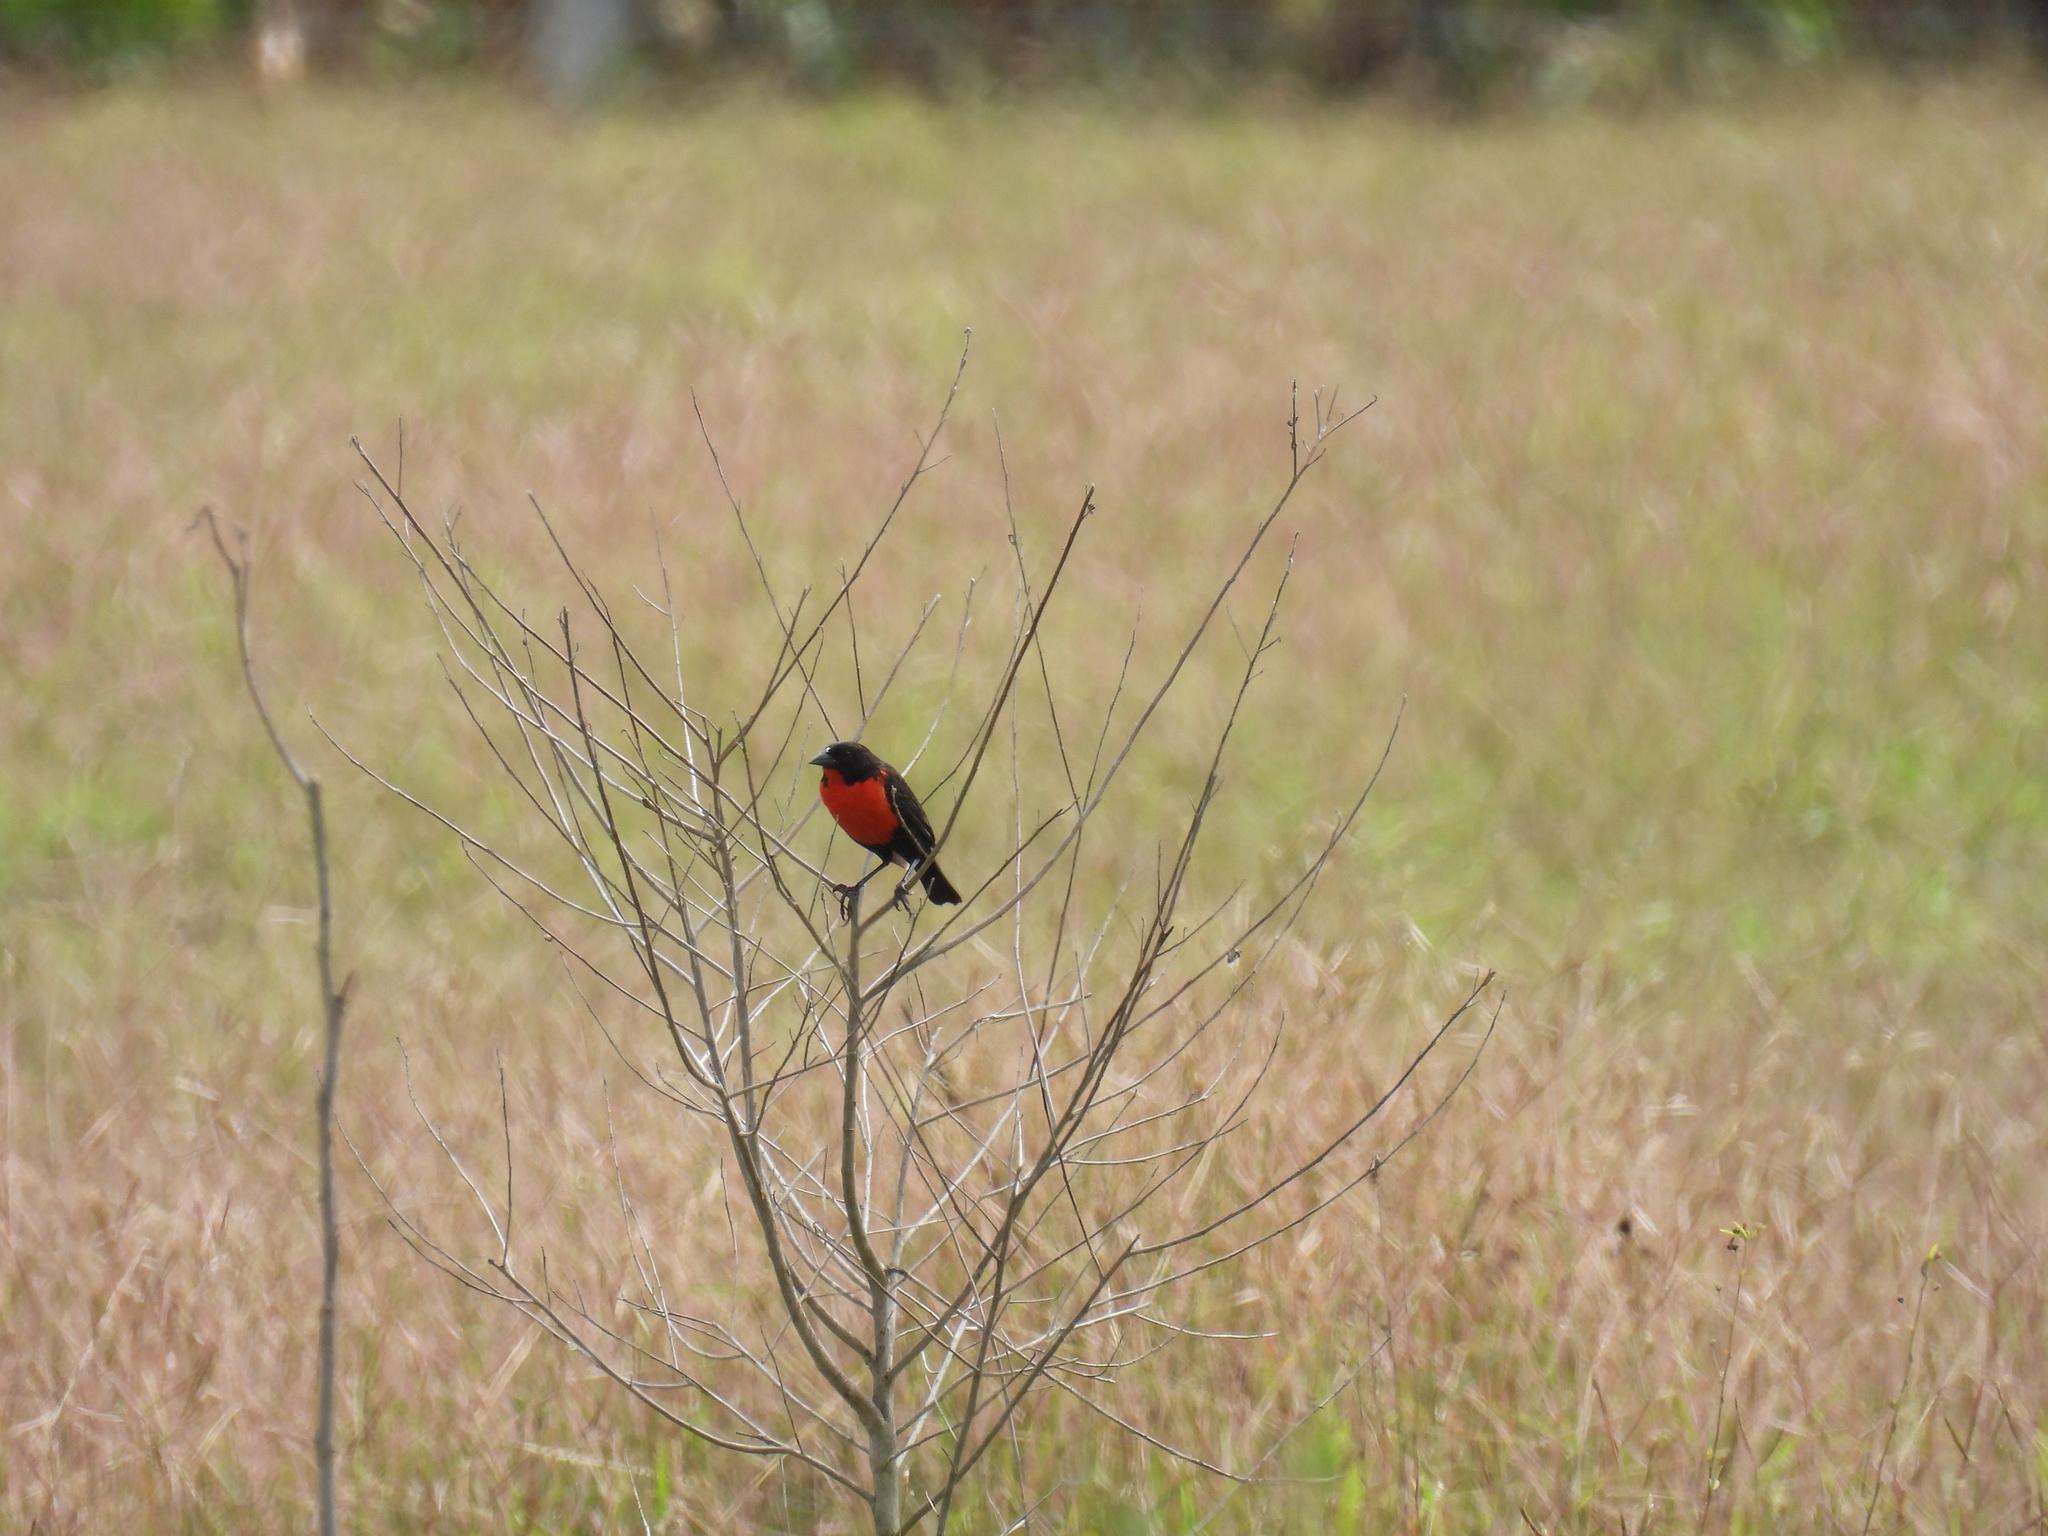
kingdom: Animalia
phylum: Chordata
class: Aves
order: Passeriformes
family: Icteridae
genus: Sturnella
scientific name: Sturnella militaris
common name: Red-breasted blackbird
